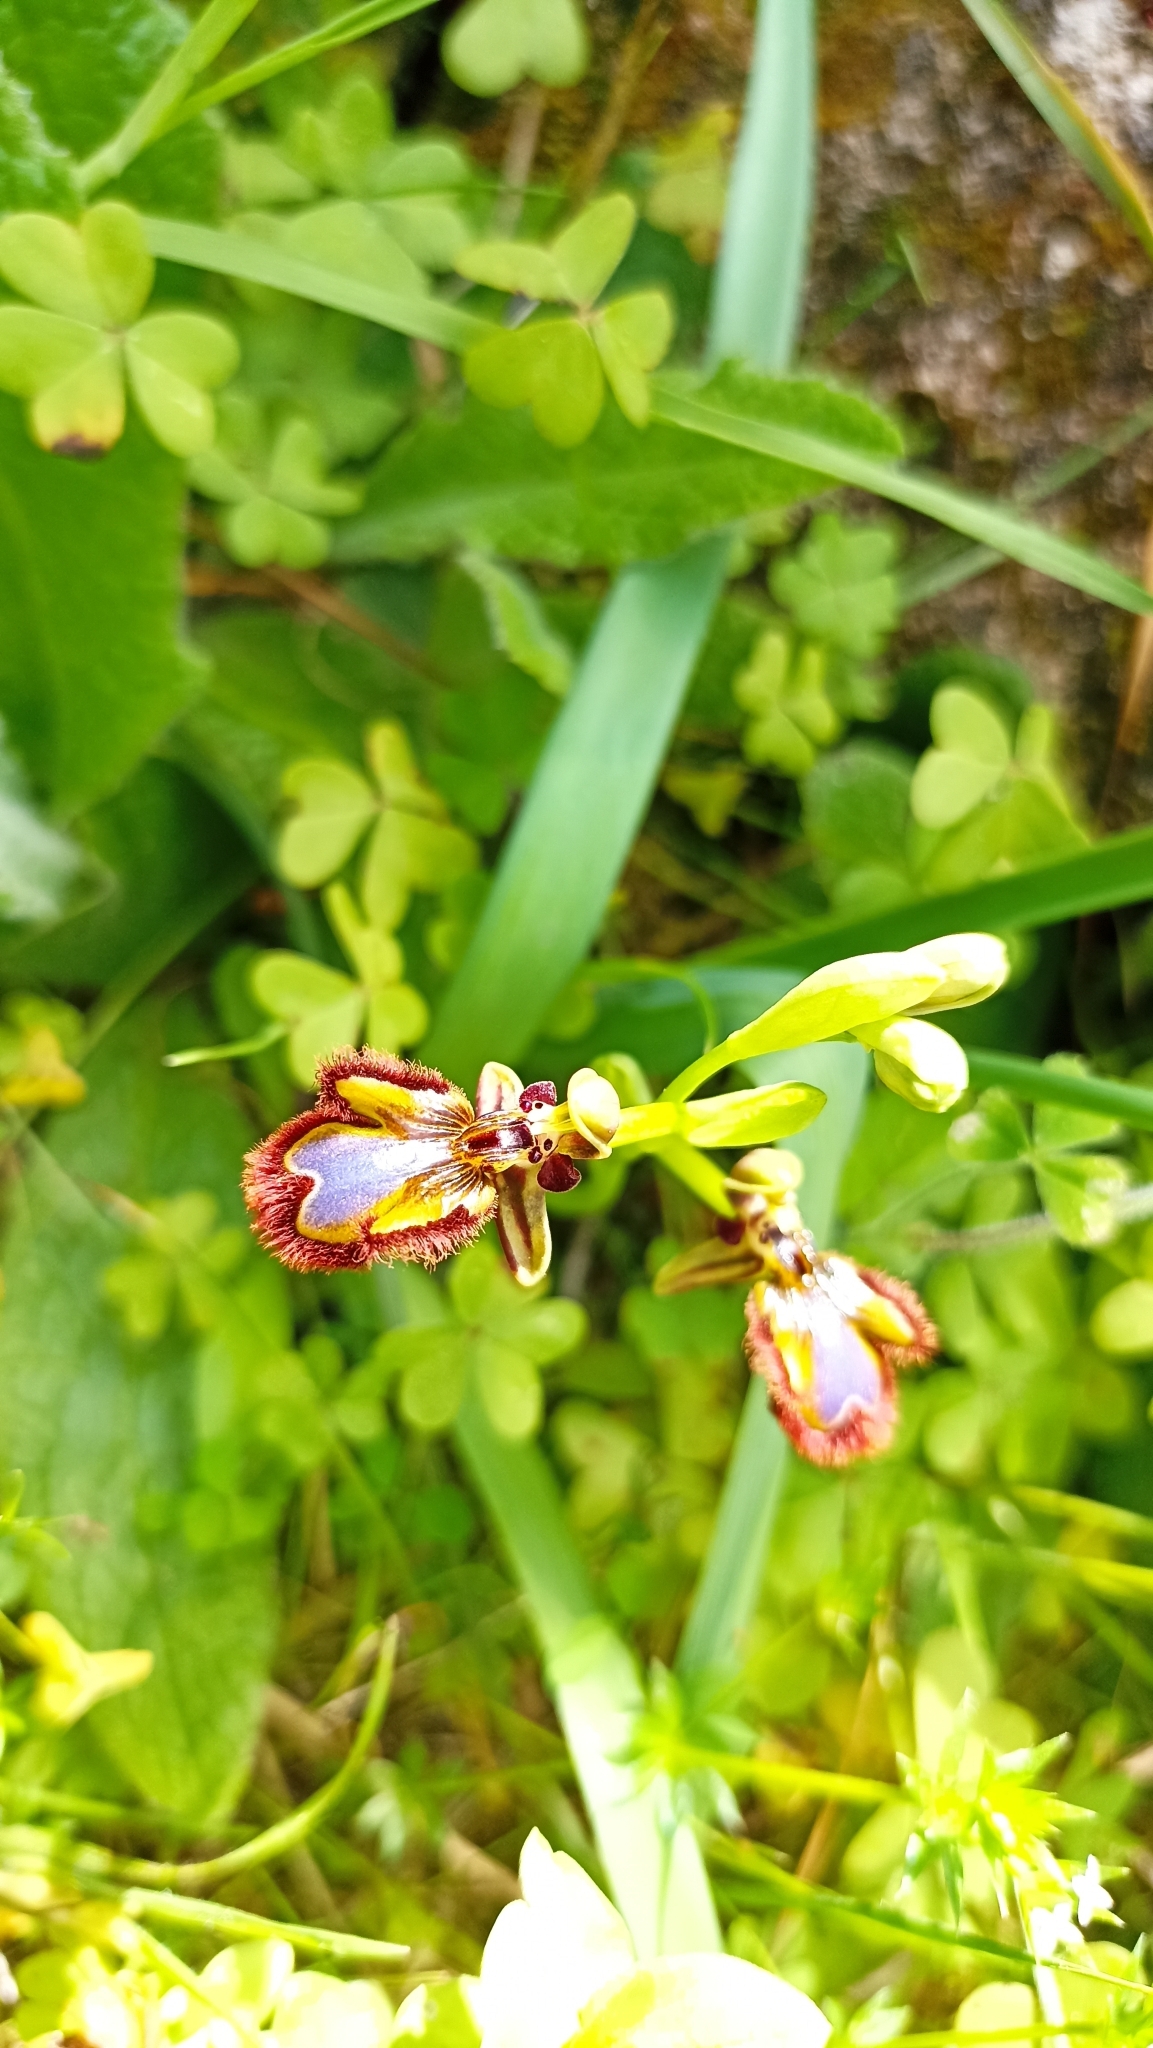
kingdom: Plantae
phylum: Tracheophyta
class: Liliopsida
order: Asparagales
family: Orchidaceae
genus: Ophrys
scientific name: Ophrys speculum
